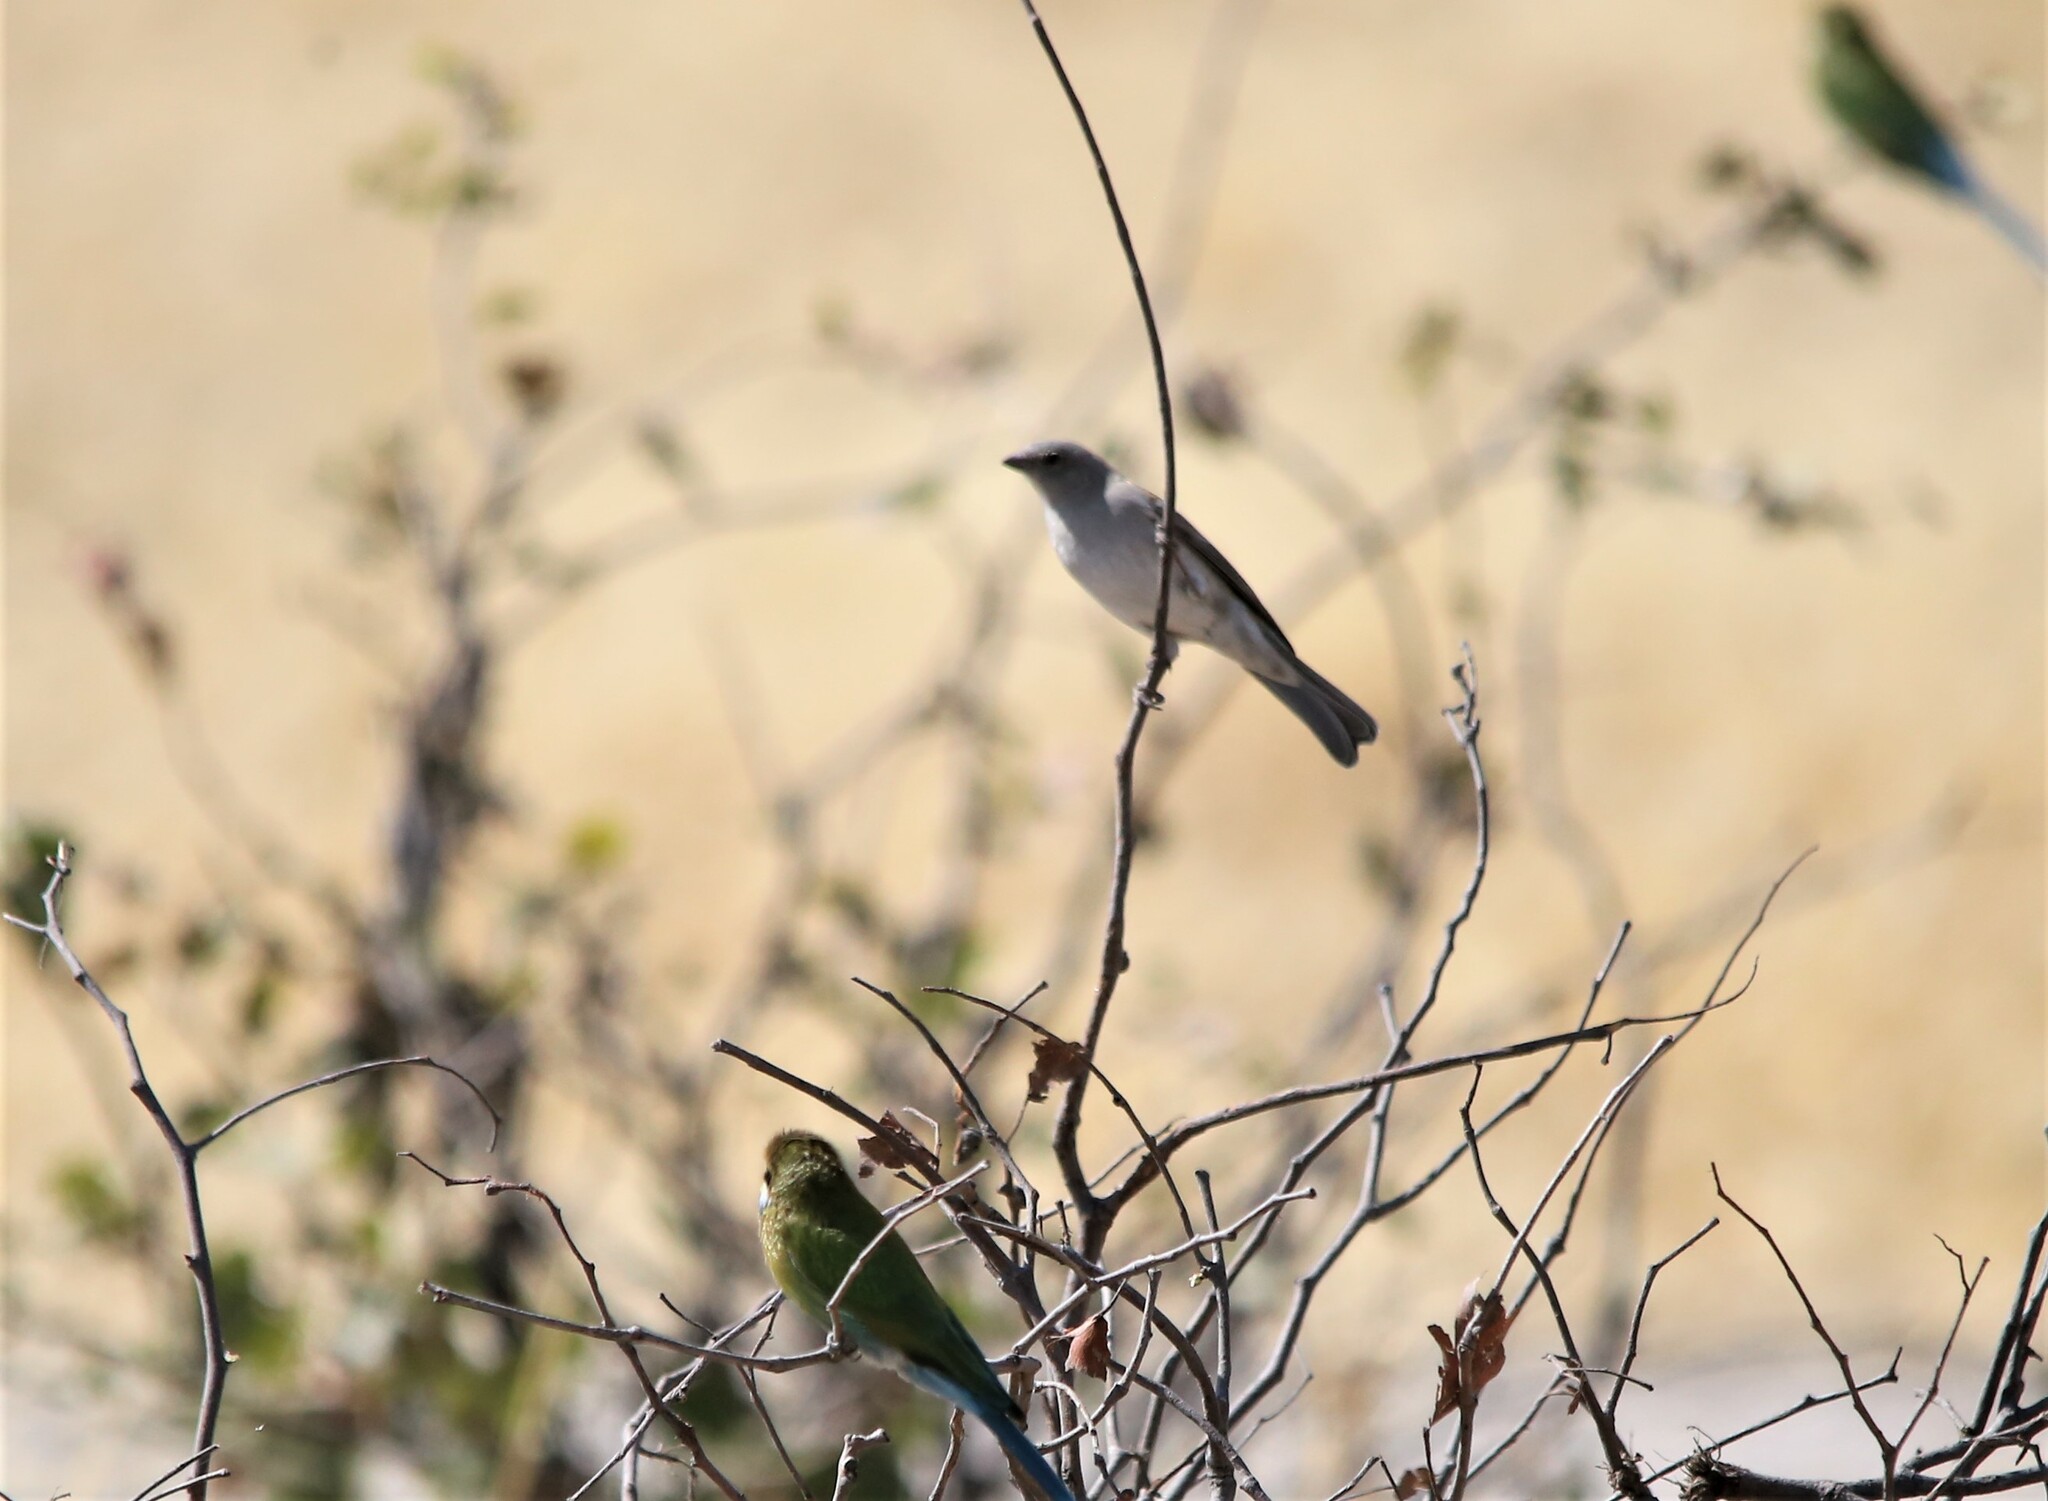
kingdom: Animalia
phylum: Chordata
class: Aves
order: Passeriformes
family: Passeridae
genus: Passer
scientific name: Passer diffusus
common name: Southern grey-headed sparrow
